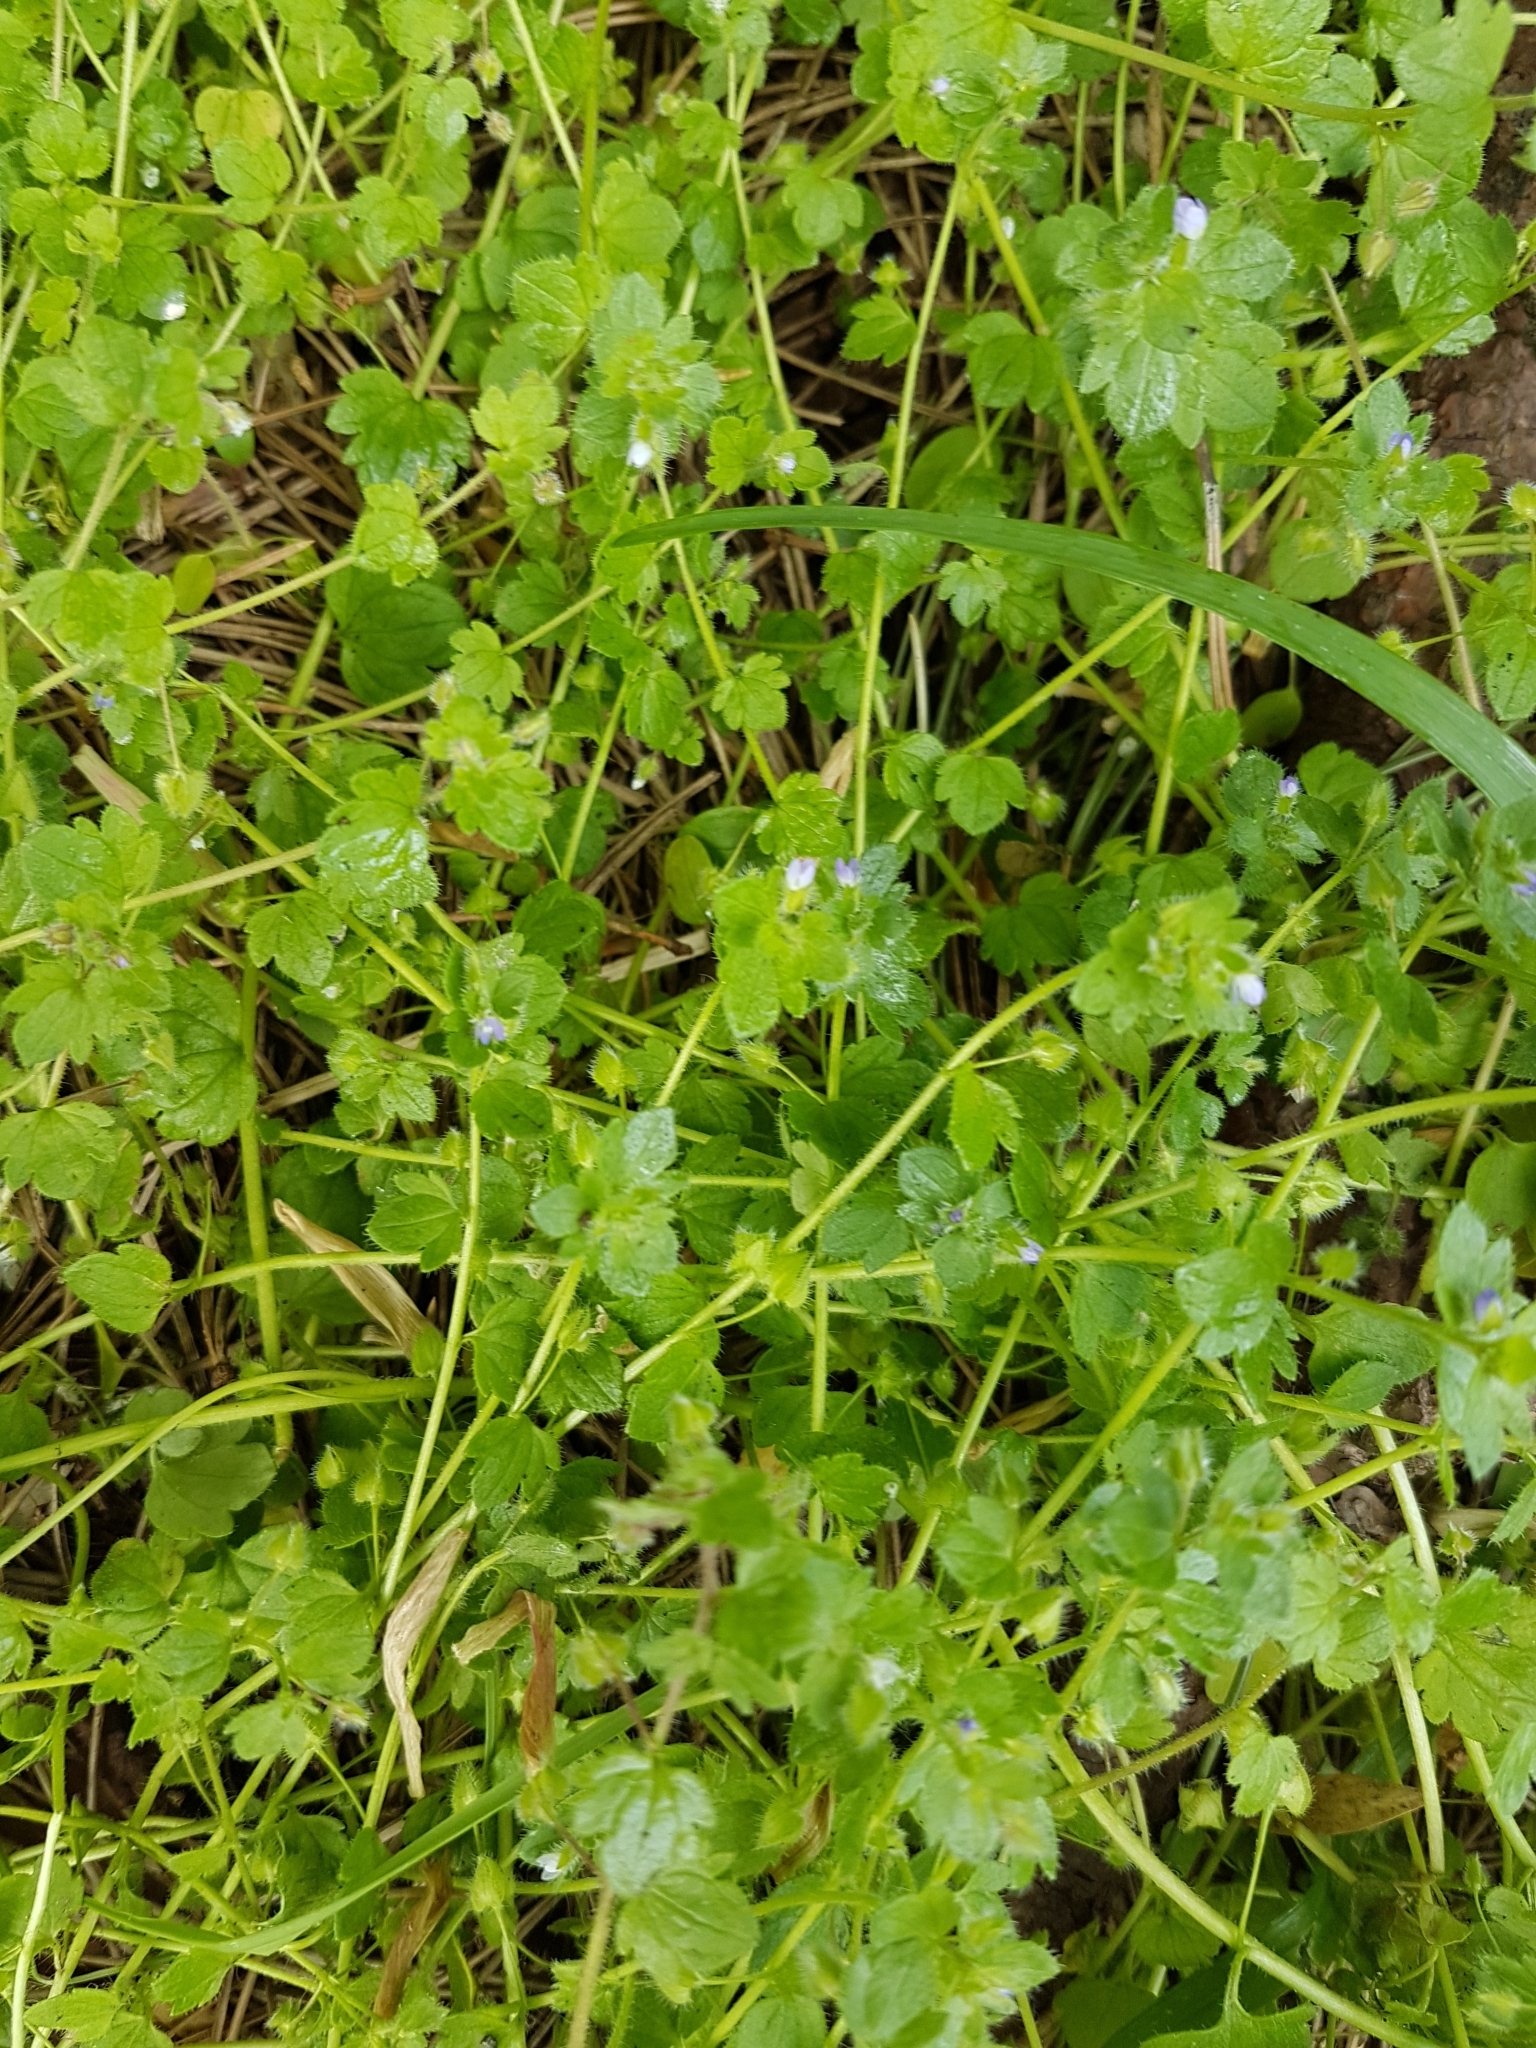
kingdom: Plantae
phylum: Tracheophyta
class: Magnoliopsida
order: Lamiales
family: Plantaginaceae
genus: Veronica
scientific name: Veronica hederifolia
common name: Ivy-leaved speedwell
